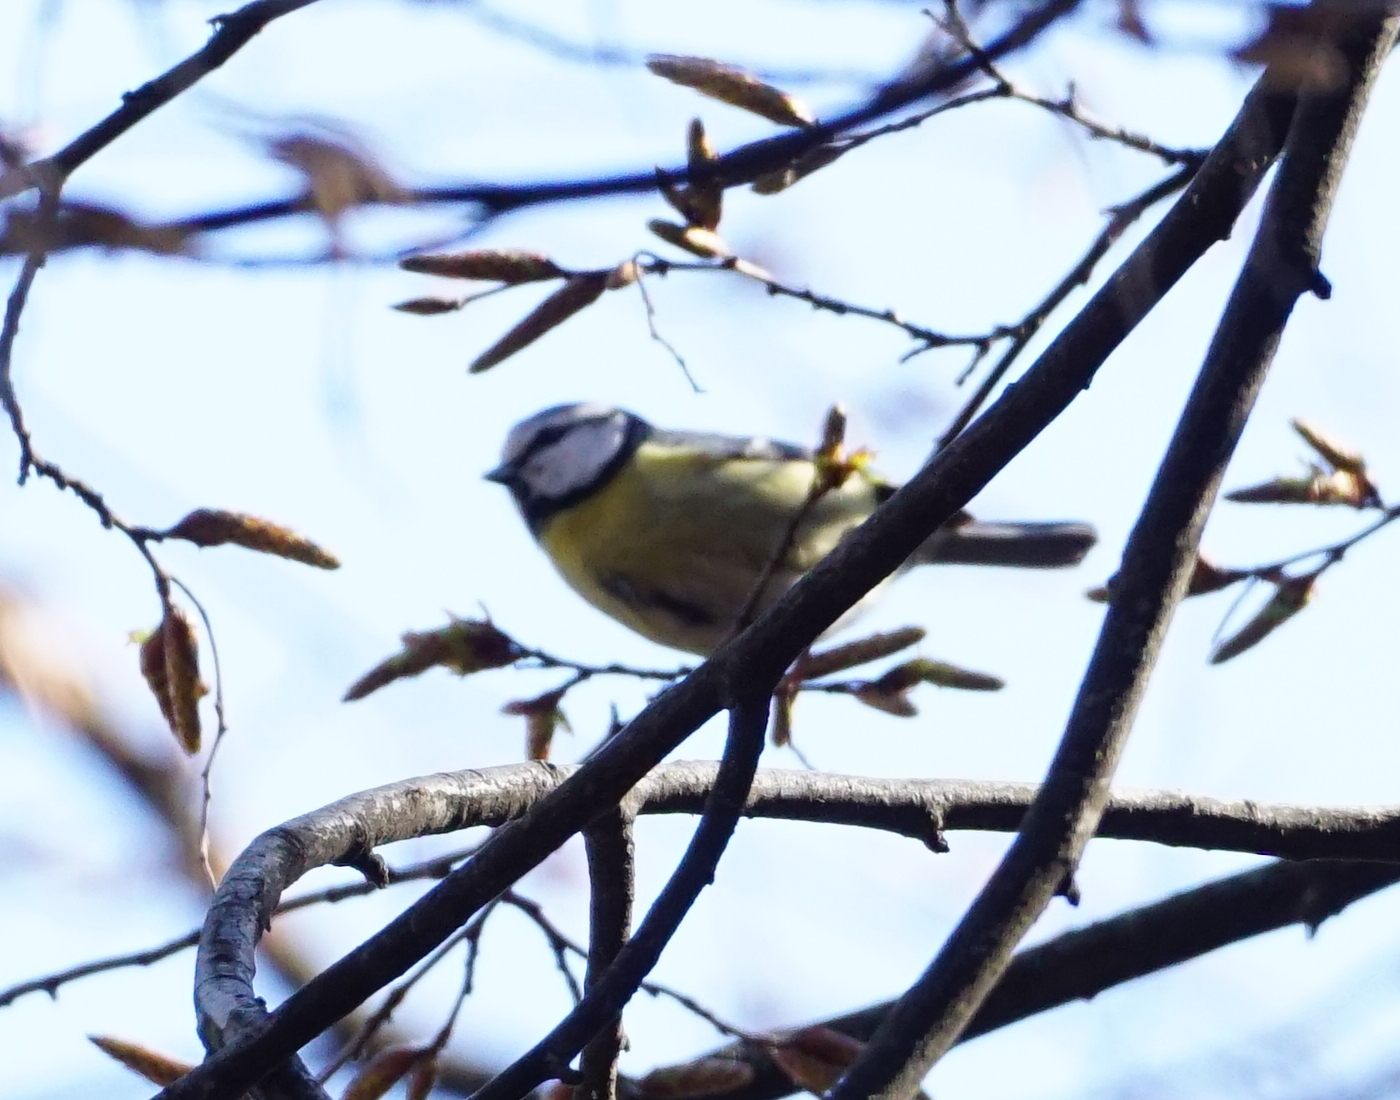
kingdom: Animalia
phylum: Chordata
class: Aves
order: Passeriformes
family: Paridae
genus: Cyanistes
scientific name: Cyanistes caeruleus
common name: Eurasian blue tit
